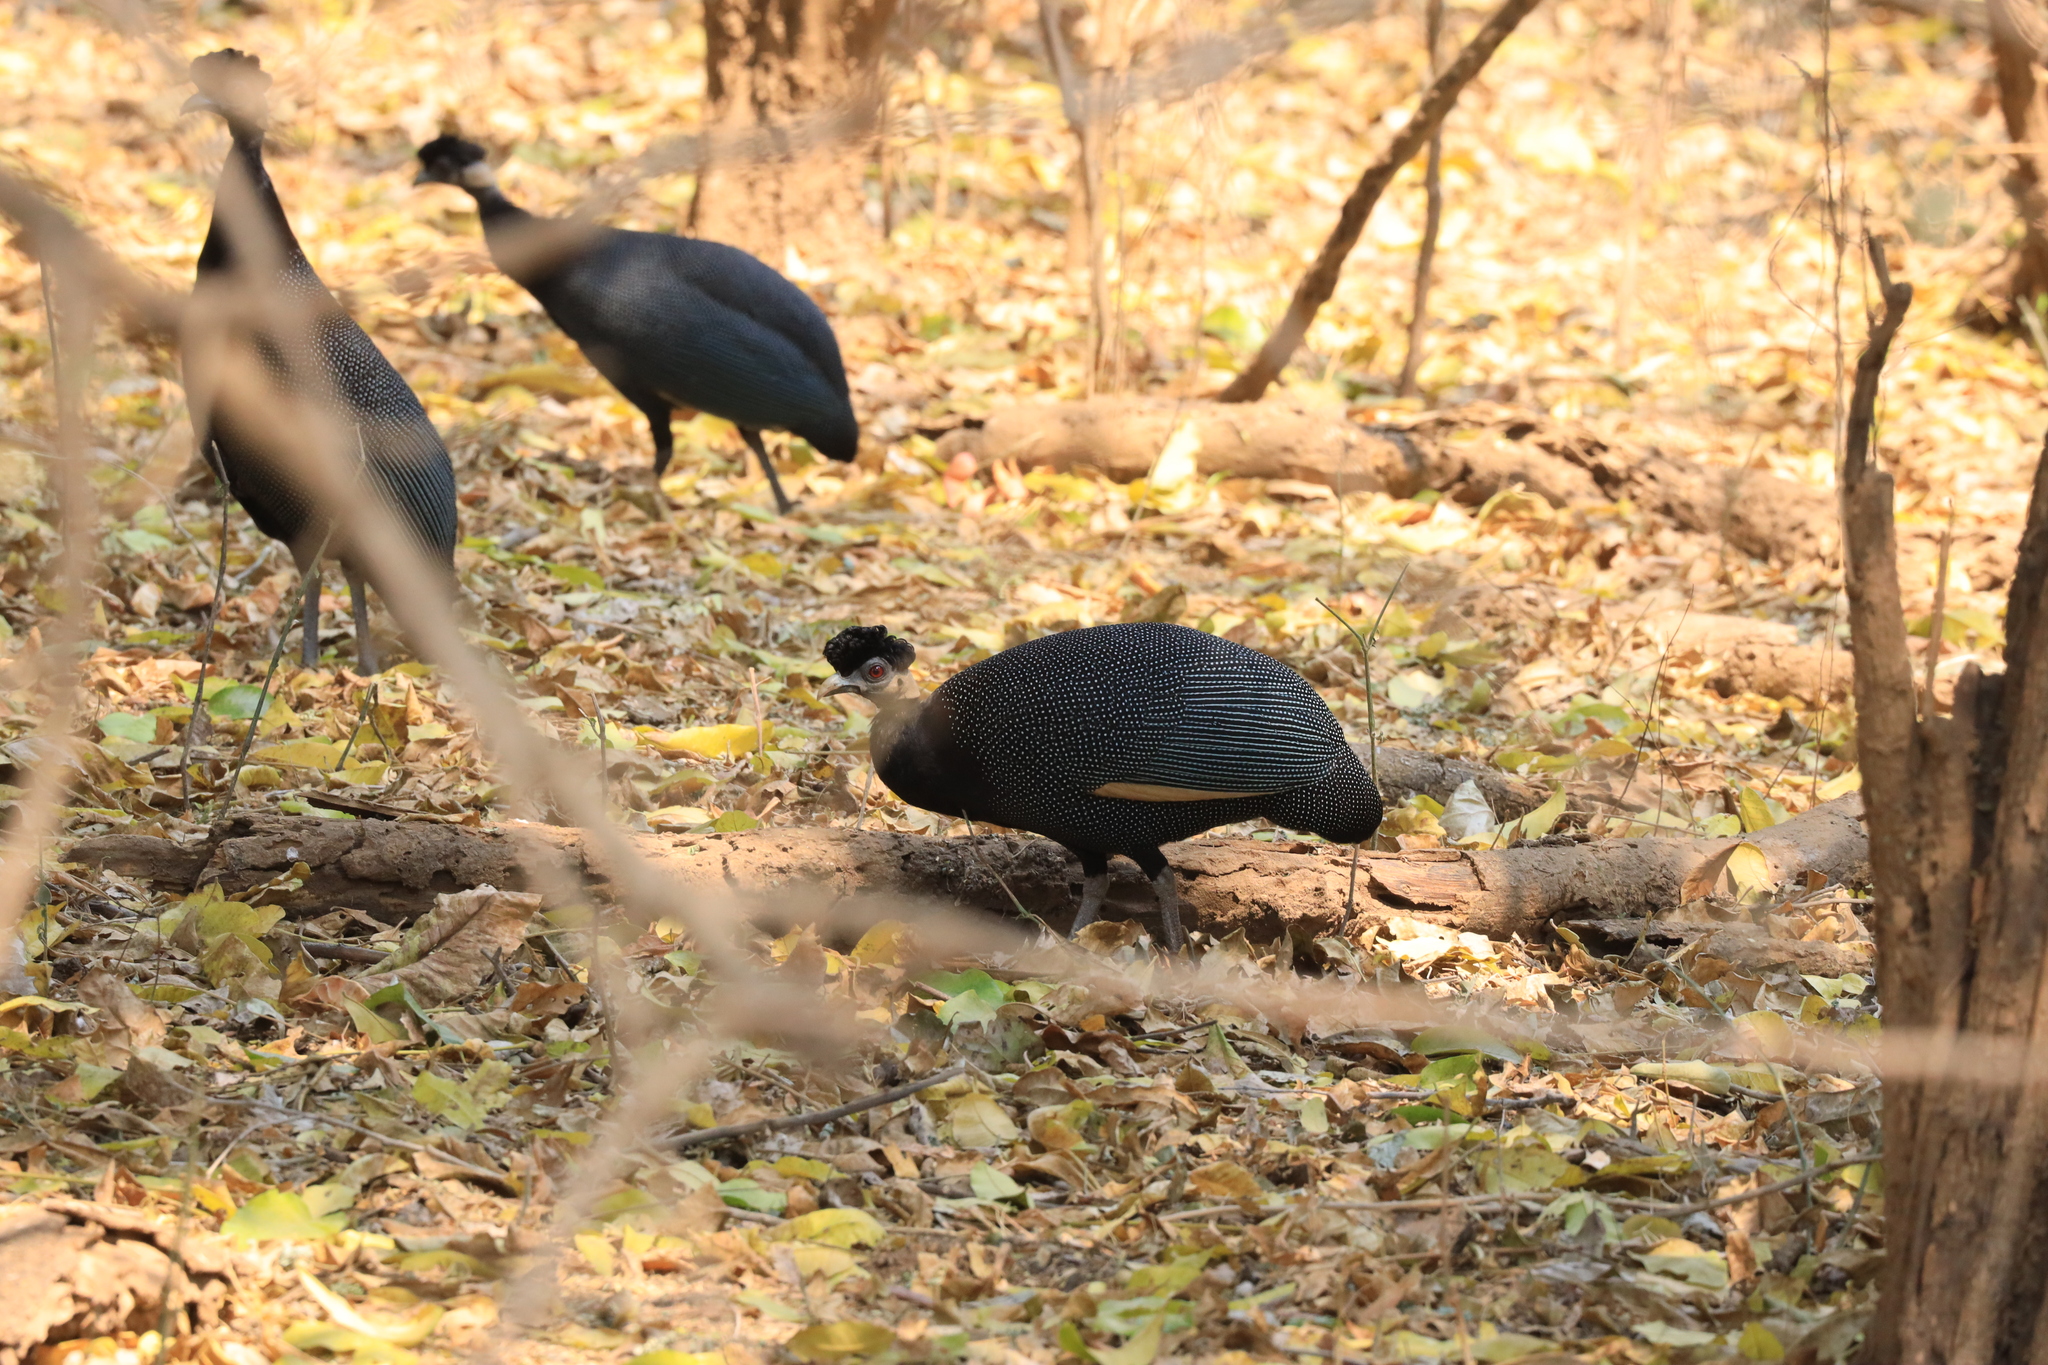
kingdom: Animalia
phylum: Chordata
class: Aves
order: Galliformes
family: Numididae
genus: Guttera
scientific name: Guttera pucherani
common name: Crested guineafowl
